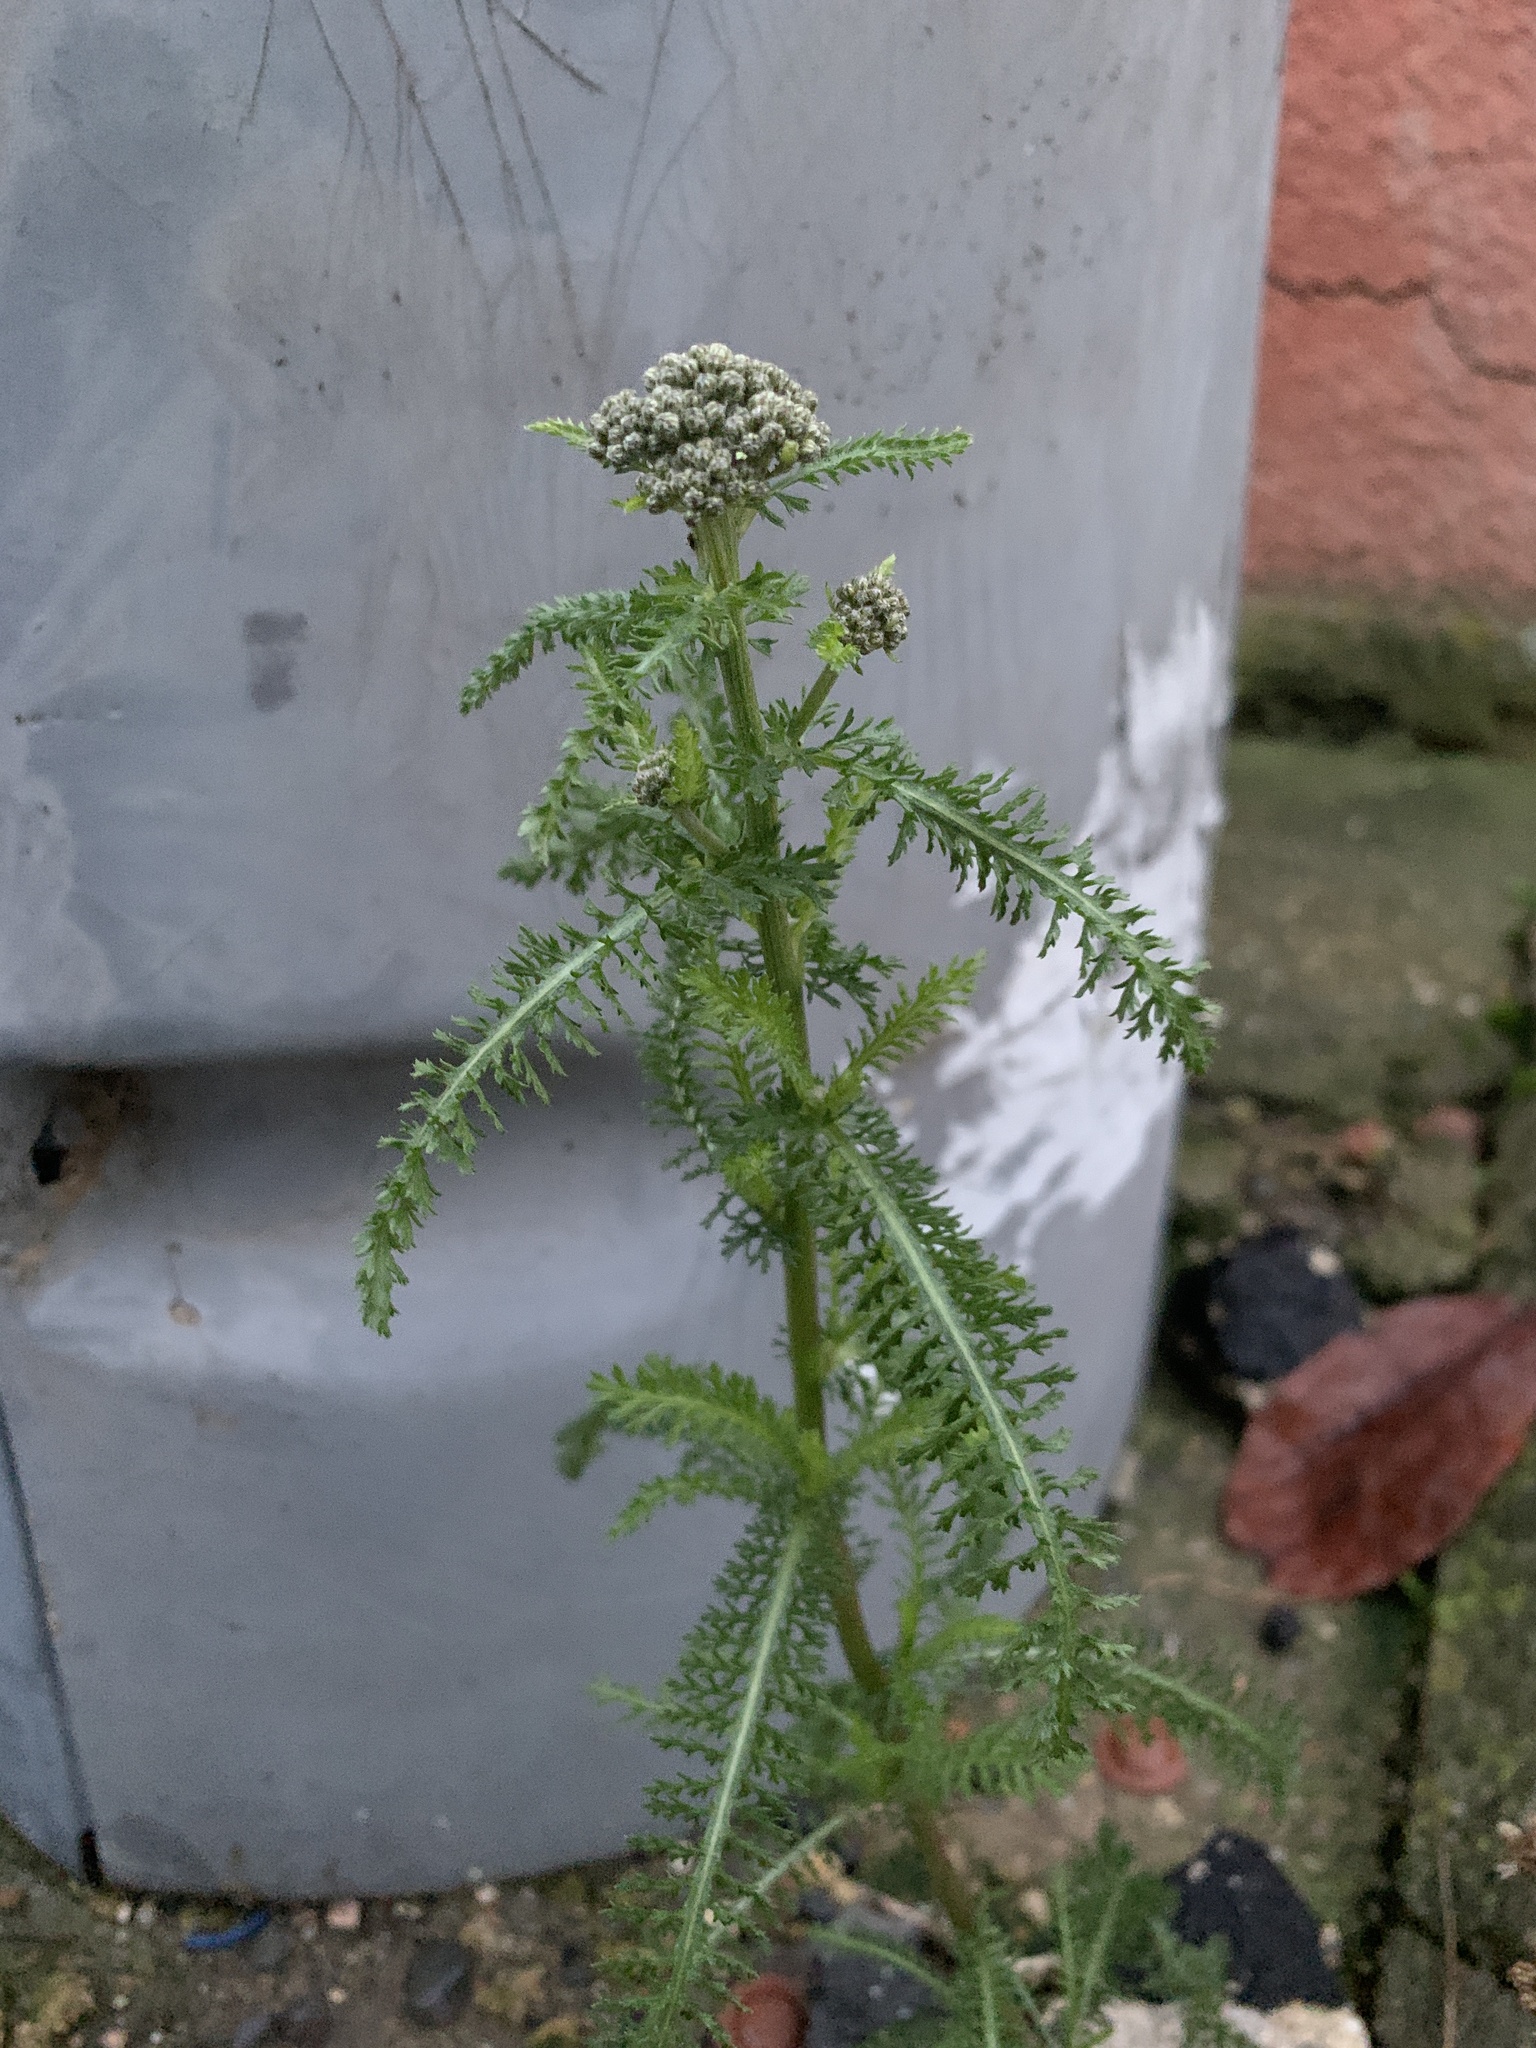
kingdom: Plantae
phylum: Tracheophyta
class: Magnoliopsida
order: Asterales
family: Asteraceae
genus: Achillea
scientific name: Achillea millefolium
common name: Yarrow
